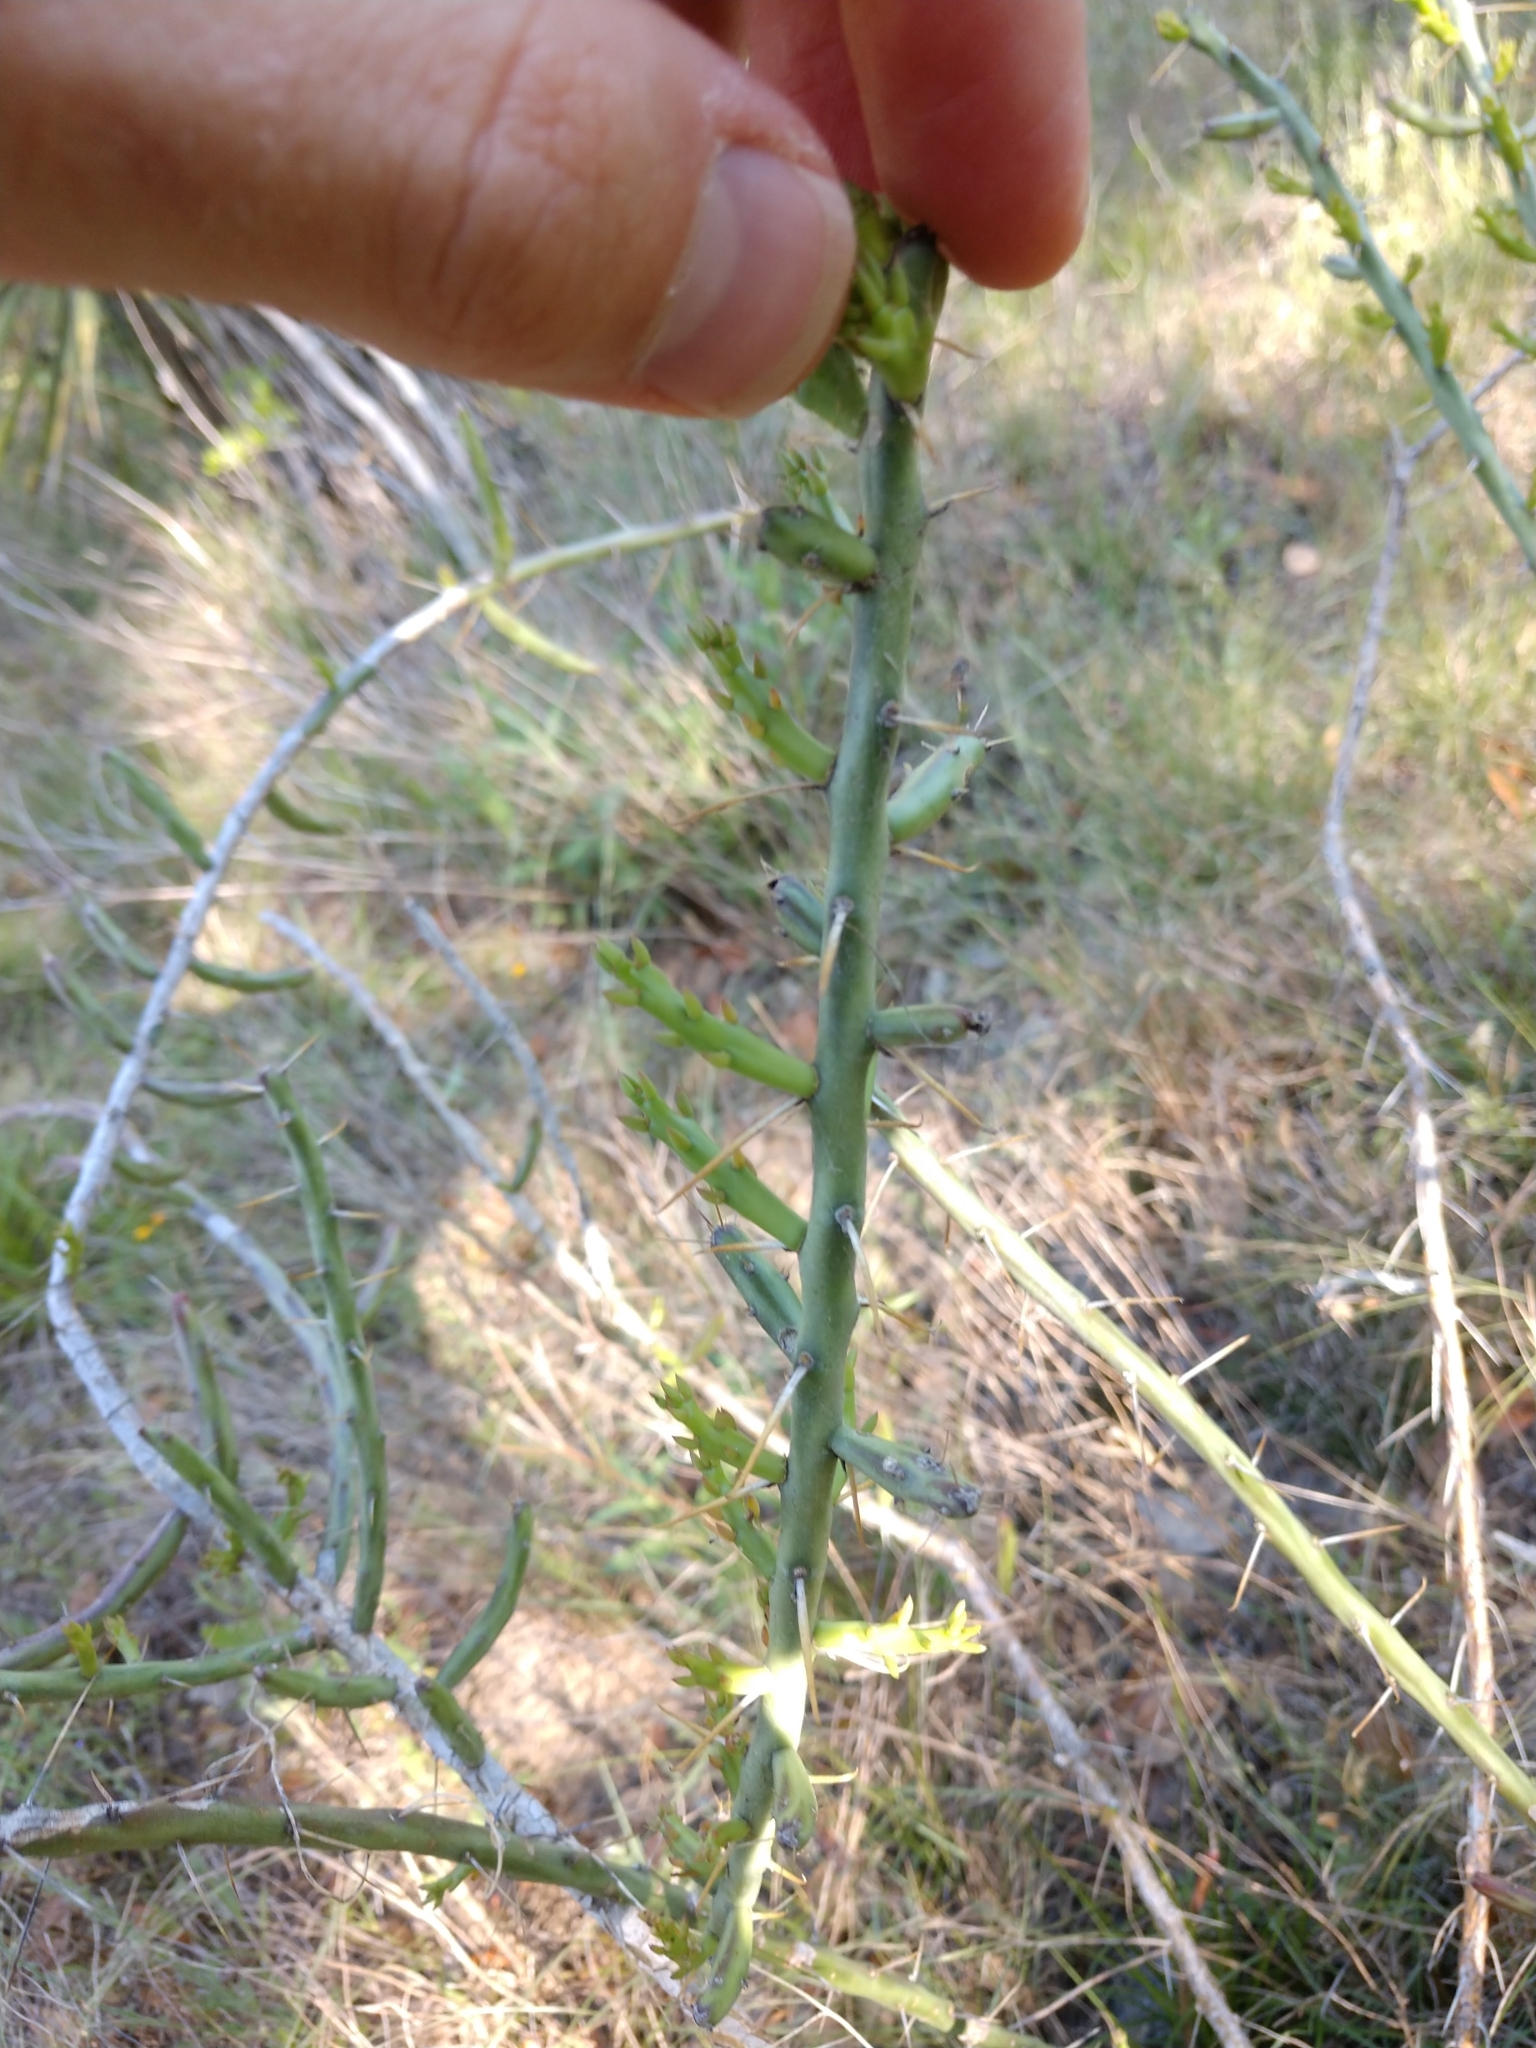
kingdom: Plantae
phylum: Tracheophyta
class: Magnoliopsida
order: Caryophyllales
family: Cactaceae
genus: Cylindropuntia
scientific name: Cylindropuntia leptocaulis
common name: Christmas cactus
